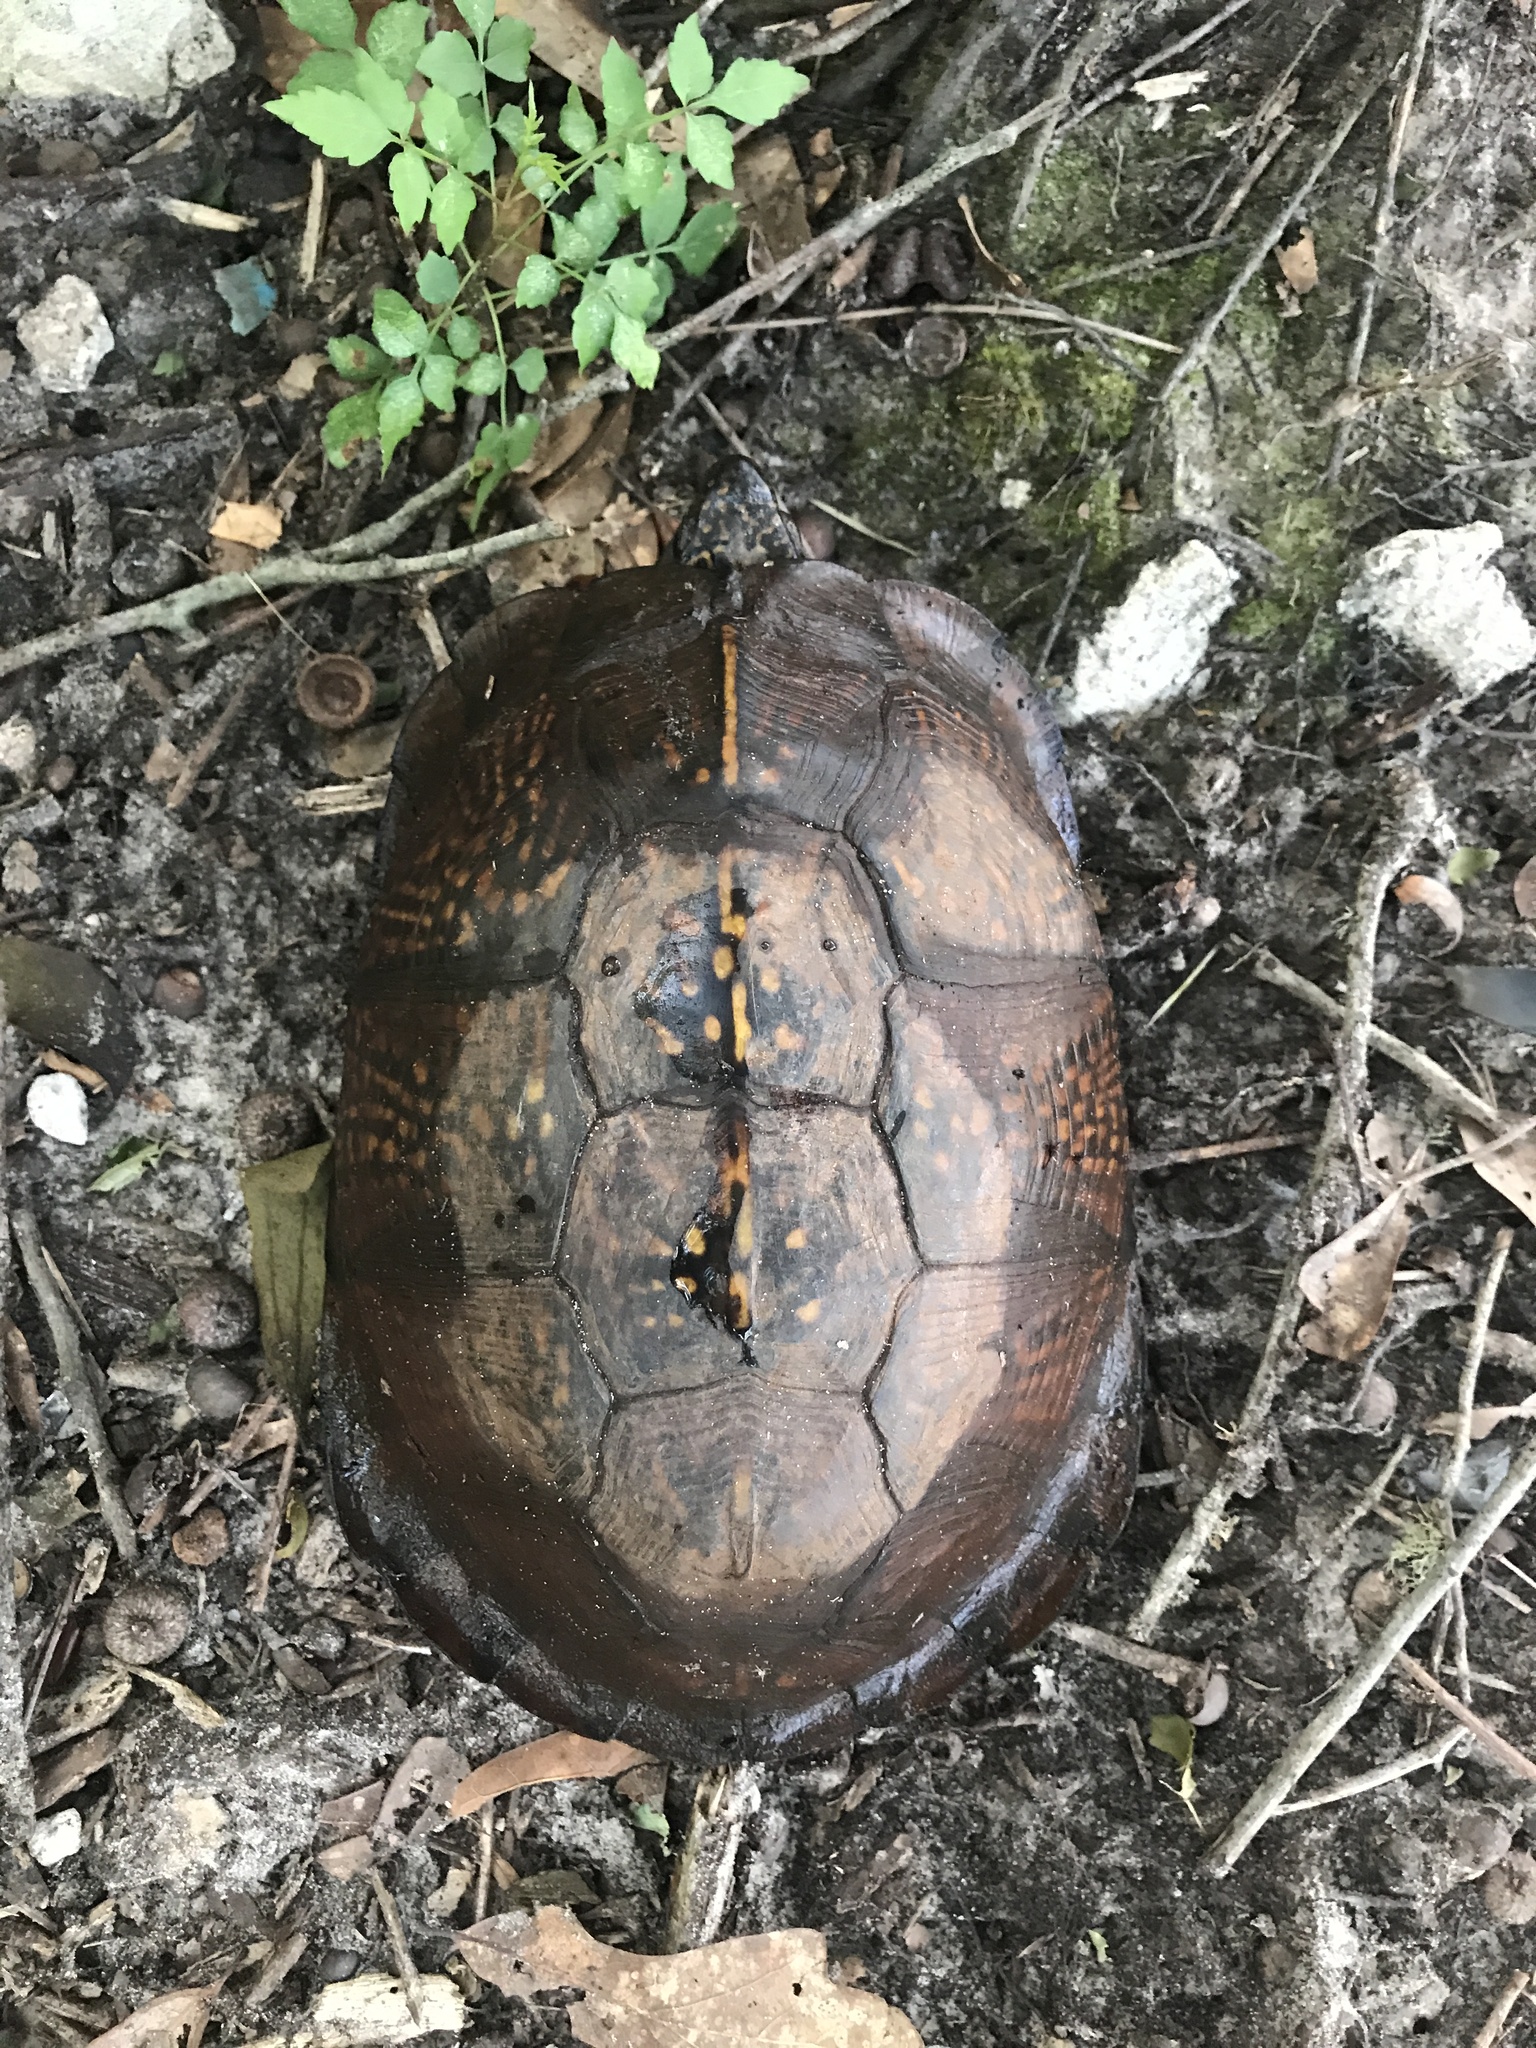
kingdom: Animalia
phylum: Chordata
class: Testudines
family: Emydidae
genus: Terrapene
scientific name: Terrapene carolina
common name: Common box turtle
